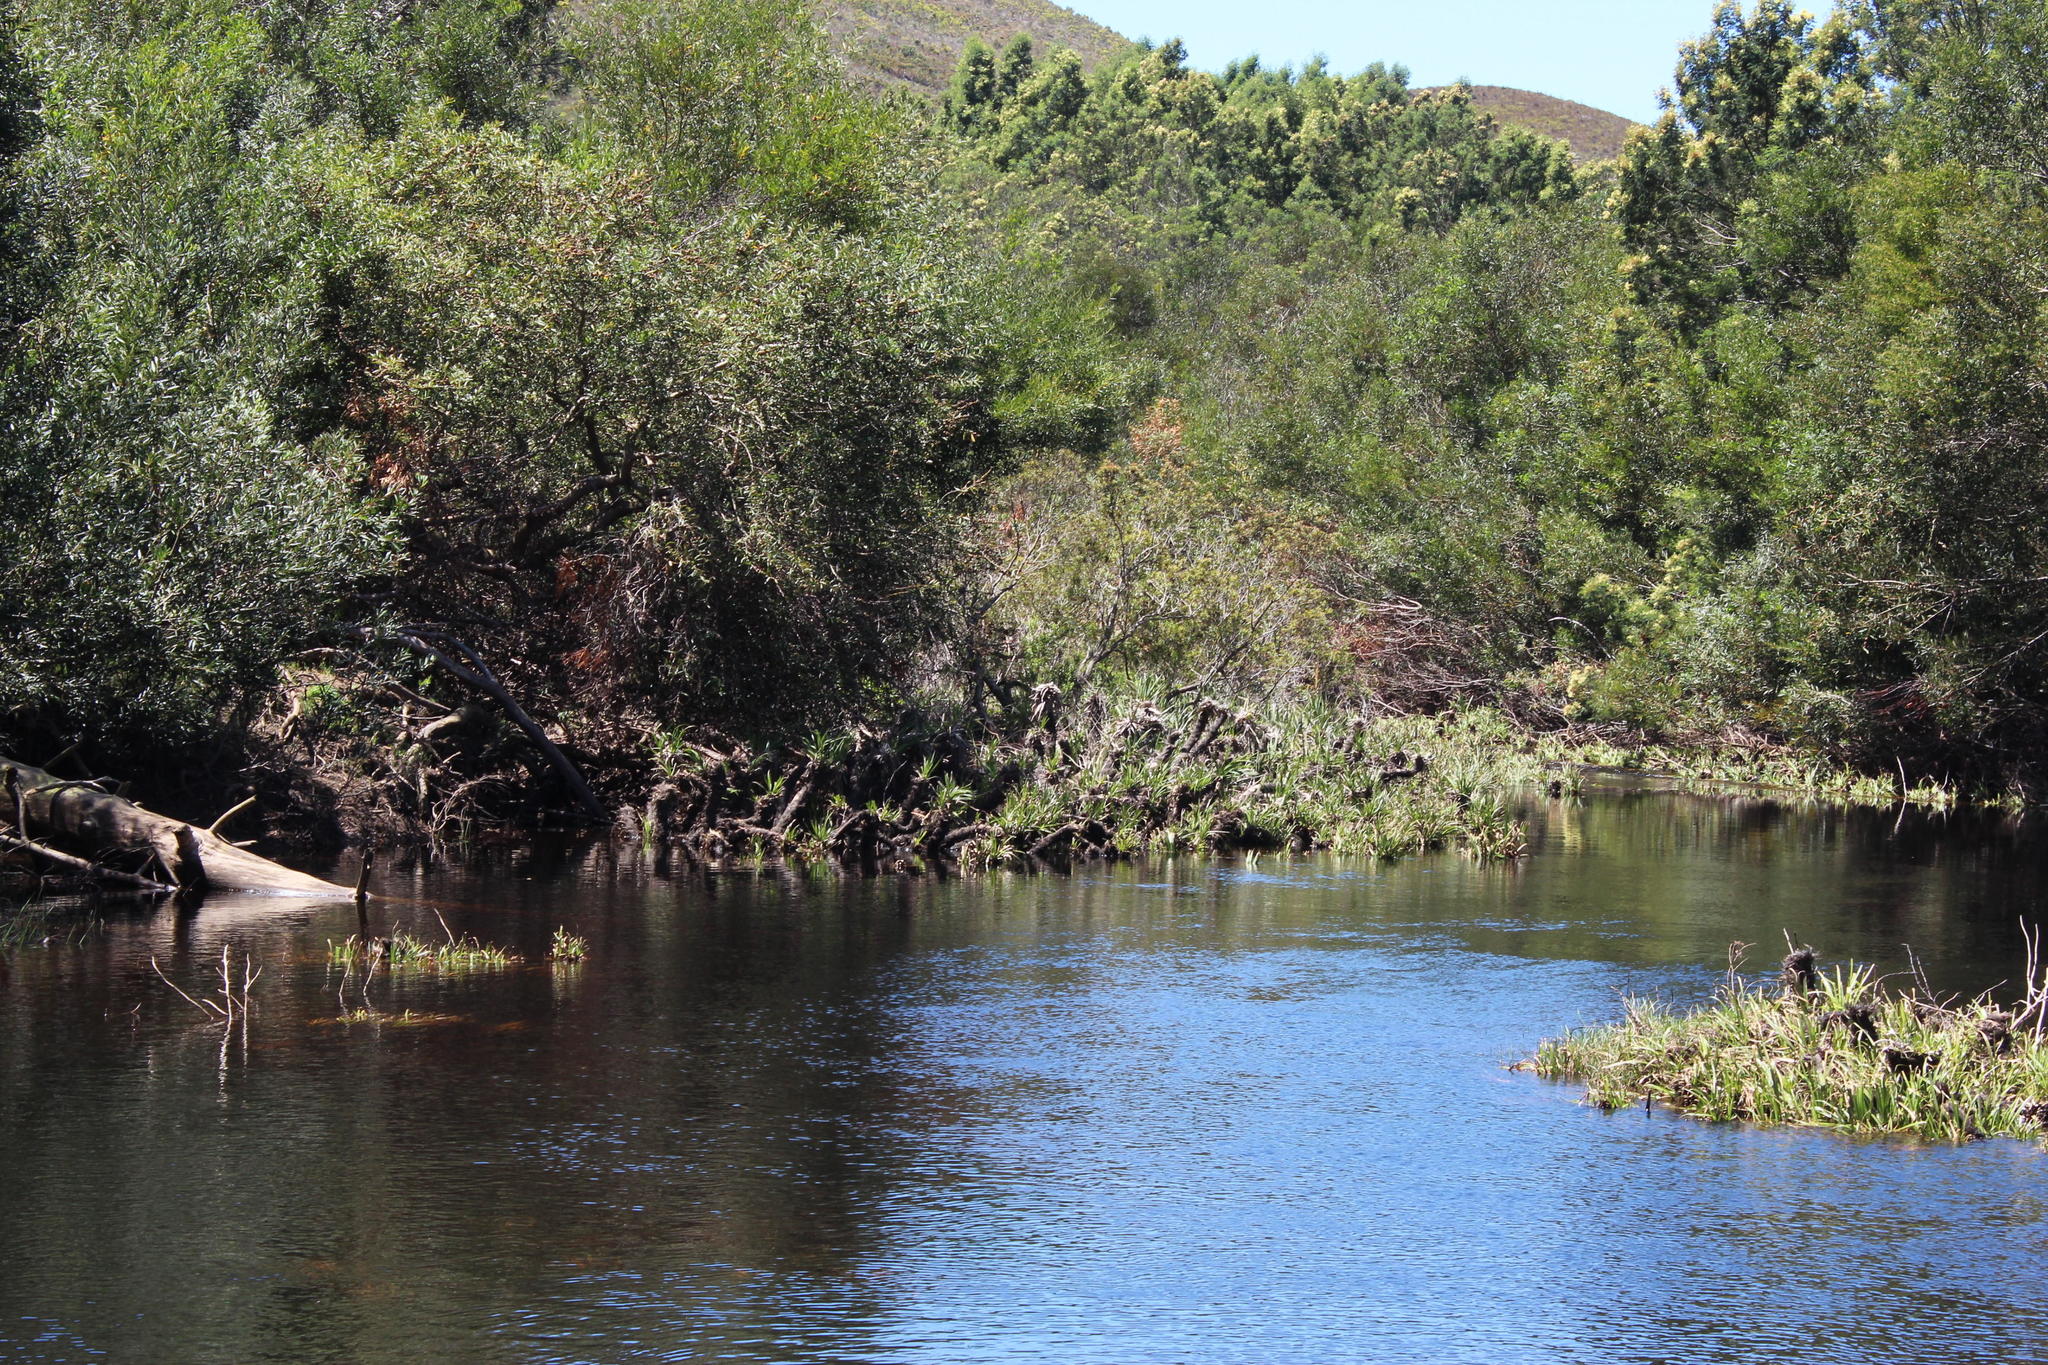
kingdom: Plantae
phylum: Tracheophyta
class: Liliopsida
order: Poales
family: Thurniaceae
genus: Prionium
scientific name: Prionium serratum
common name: Palmiet
